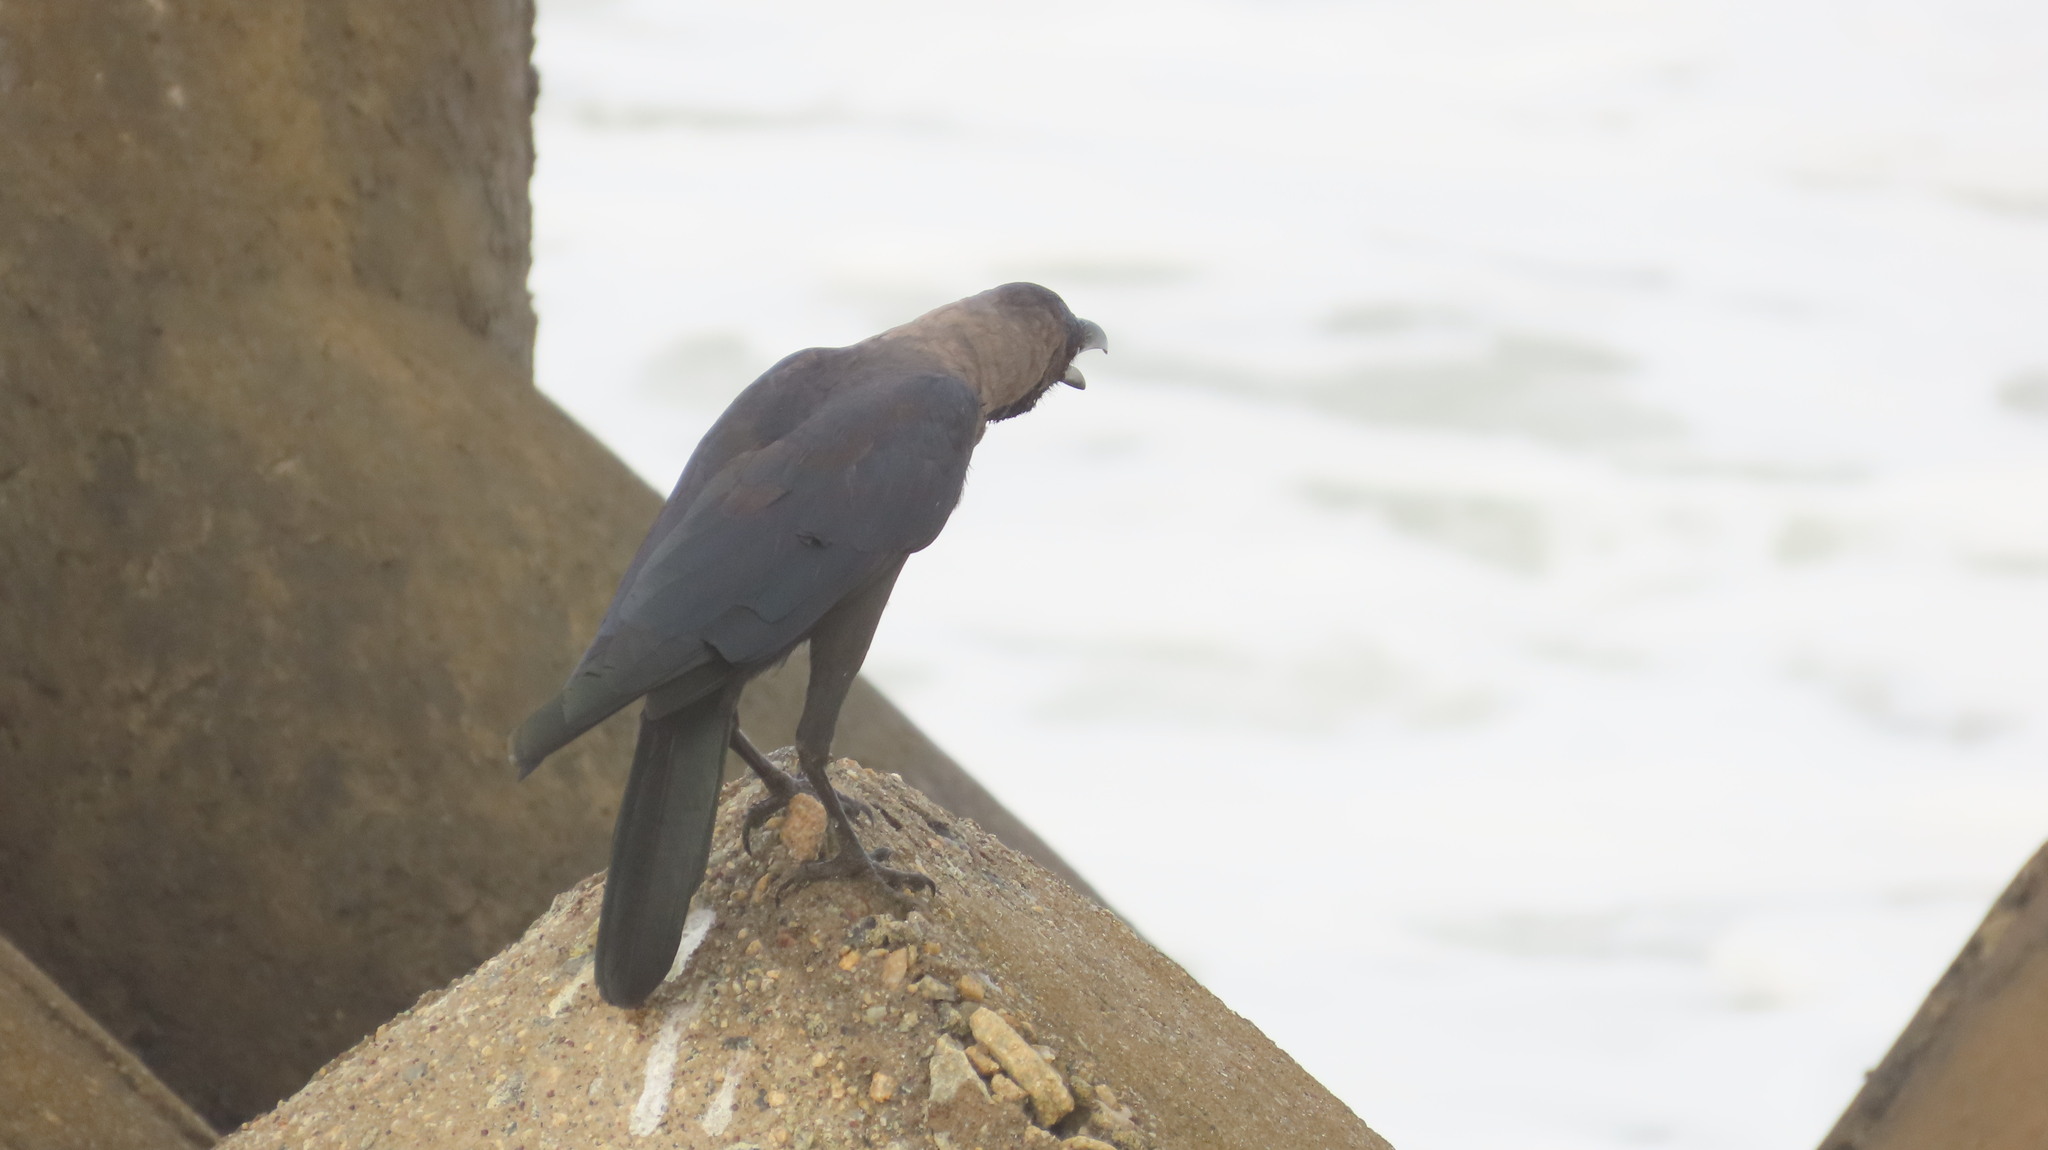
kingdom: Animalia
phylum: Chordata
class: Aves
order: Passeriformes
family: Corvidae
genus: Corvus
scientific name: Corvus splendens
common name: House crow
